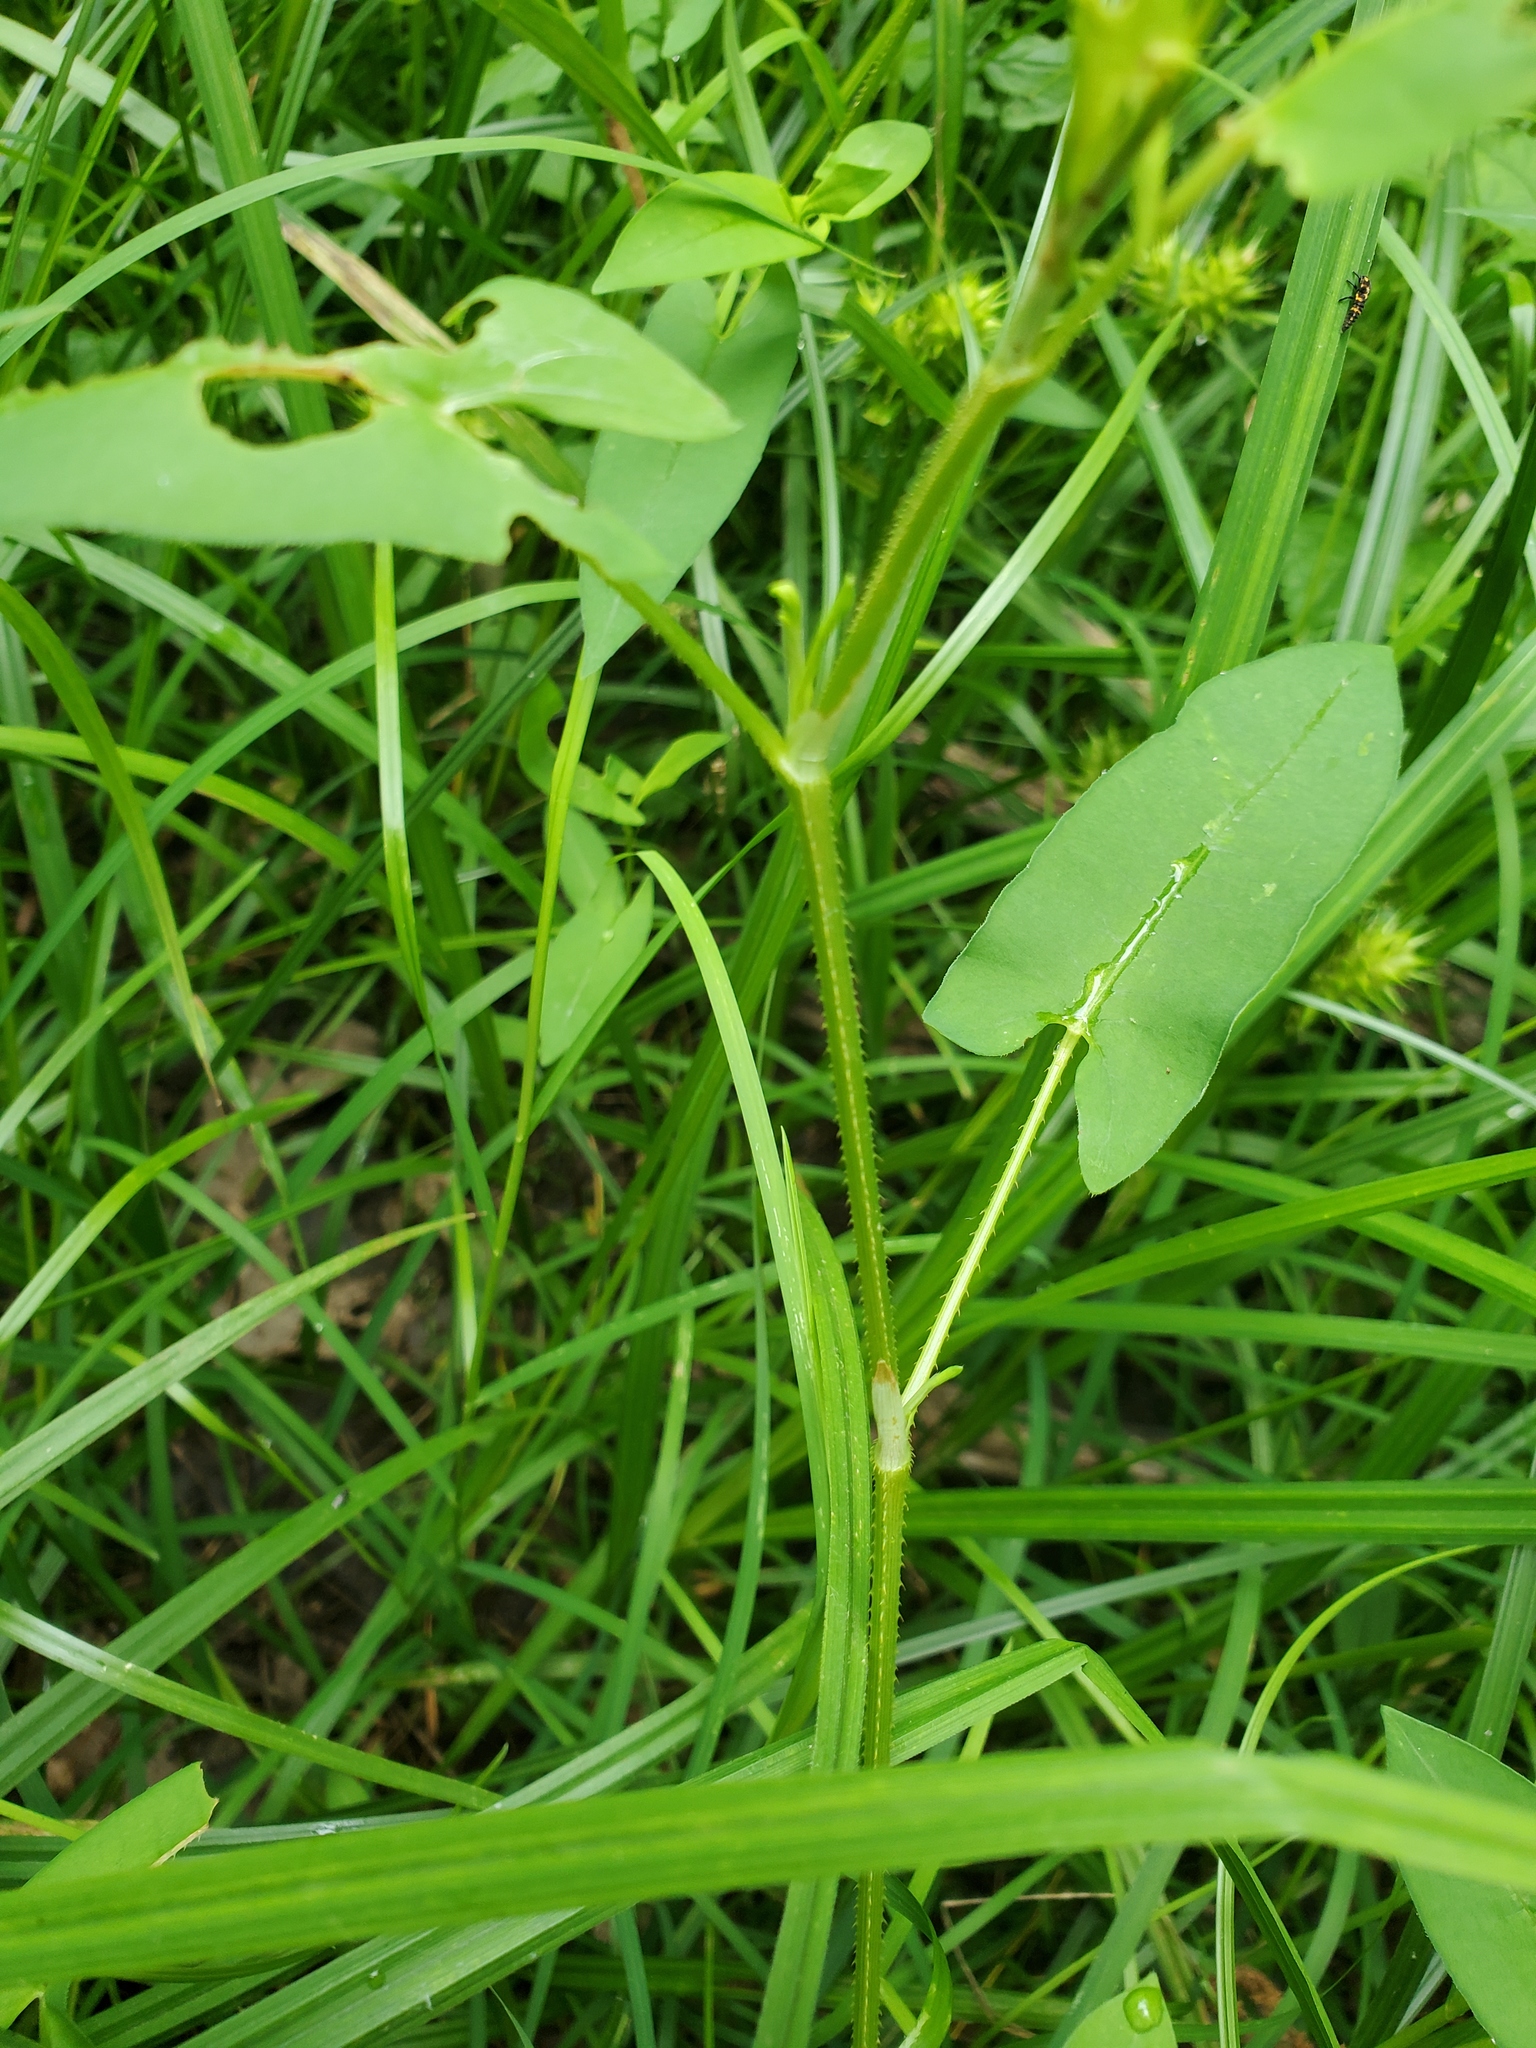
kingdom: Plantae
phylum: Tracheophyta
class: Magnoliopsida
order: Caryophyllales
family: Polygonaceae
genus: Persicaria
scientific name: Persicaria sagittata
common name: American tearthumb
